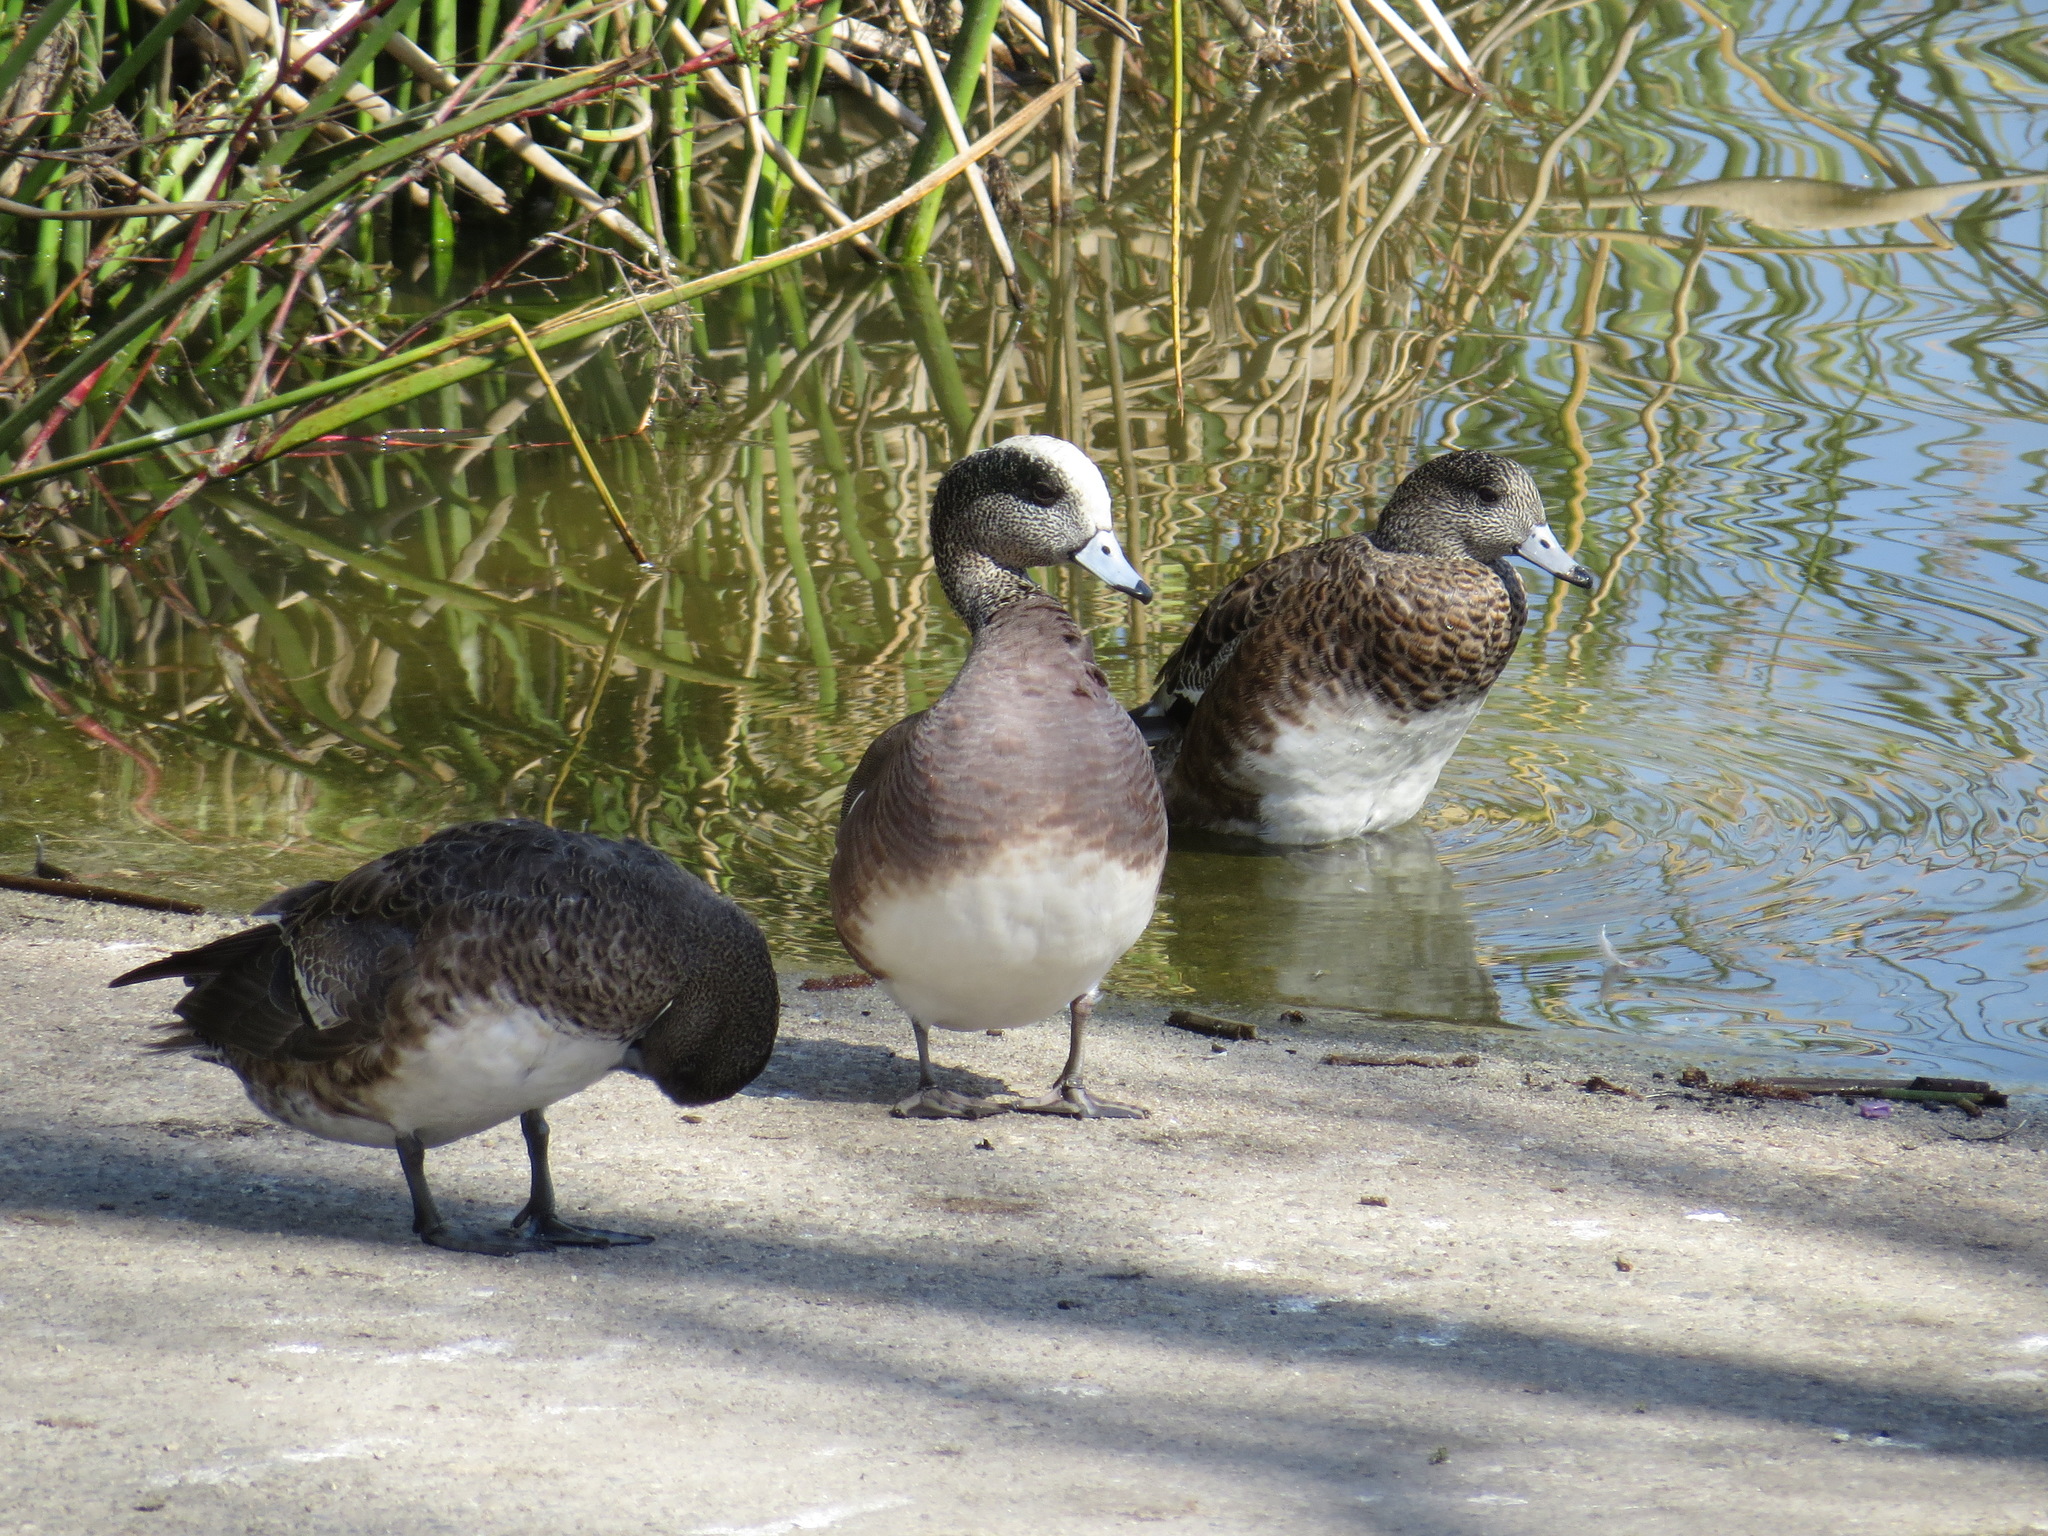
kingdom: Animalia
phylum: Chordata
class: Aves
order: Anseriformes
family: Anatidae
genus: Mareca
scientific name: Mareca americana
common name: American wigeon
